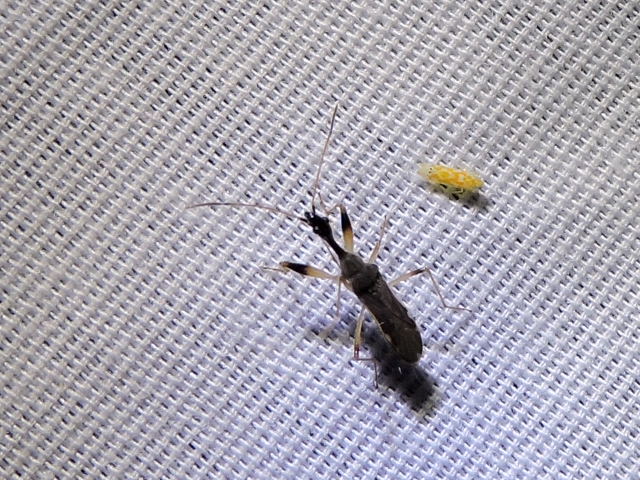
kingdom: Animalia
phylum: Arthropoda
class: Insecta
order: Hemiptera
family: Rhyparochromidae
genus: Myodocha
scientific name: Myodocha serripes
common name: Long-necked seed bug
